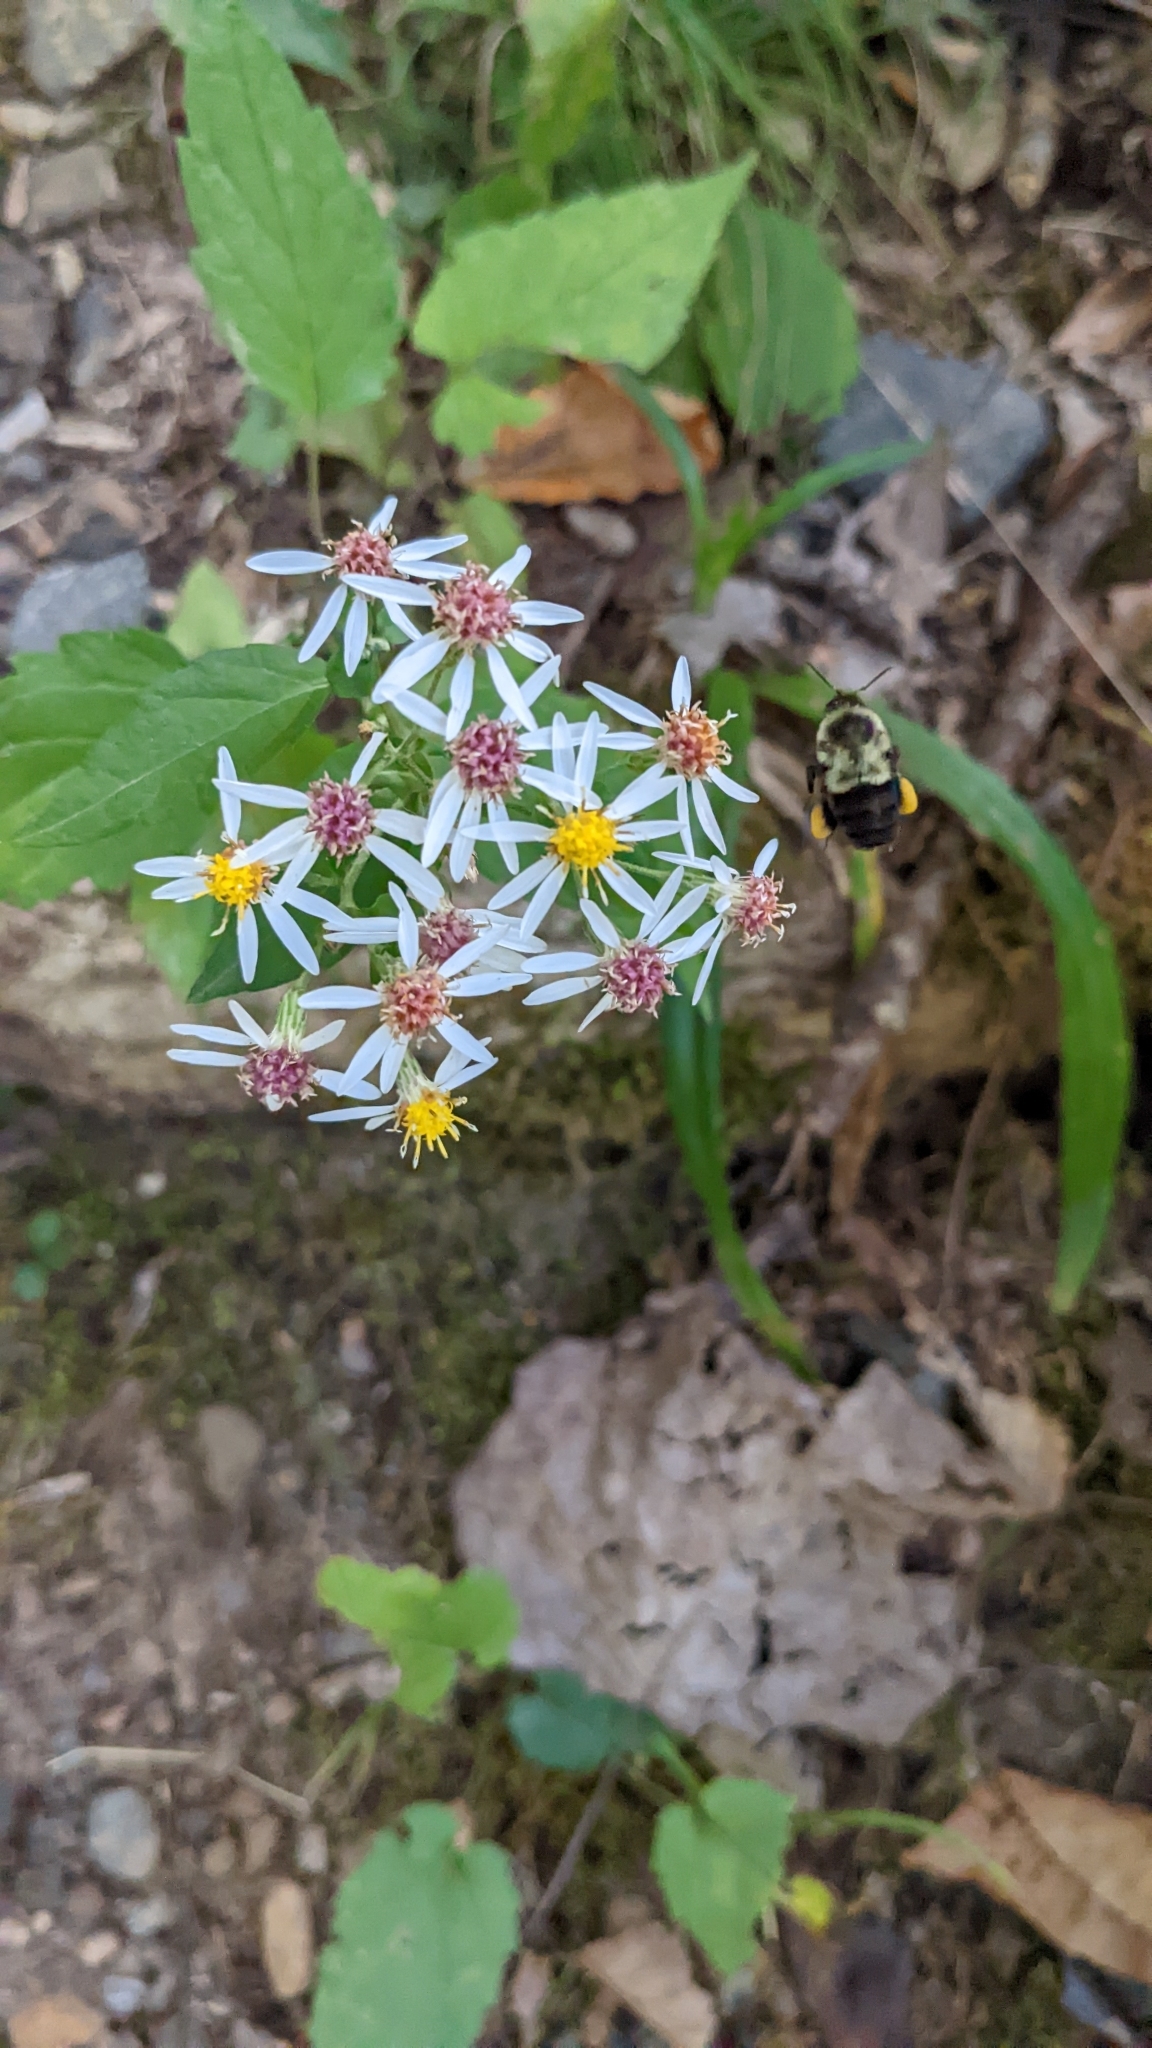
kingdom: Plantae
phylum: Tracheophyta
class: Magnoliopsida
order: Asterales
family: Asteraceae
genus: Eurybia
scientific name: Eurybia divaricata
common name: White wood aster
